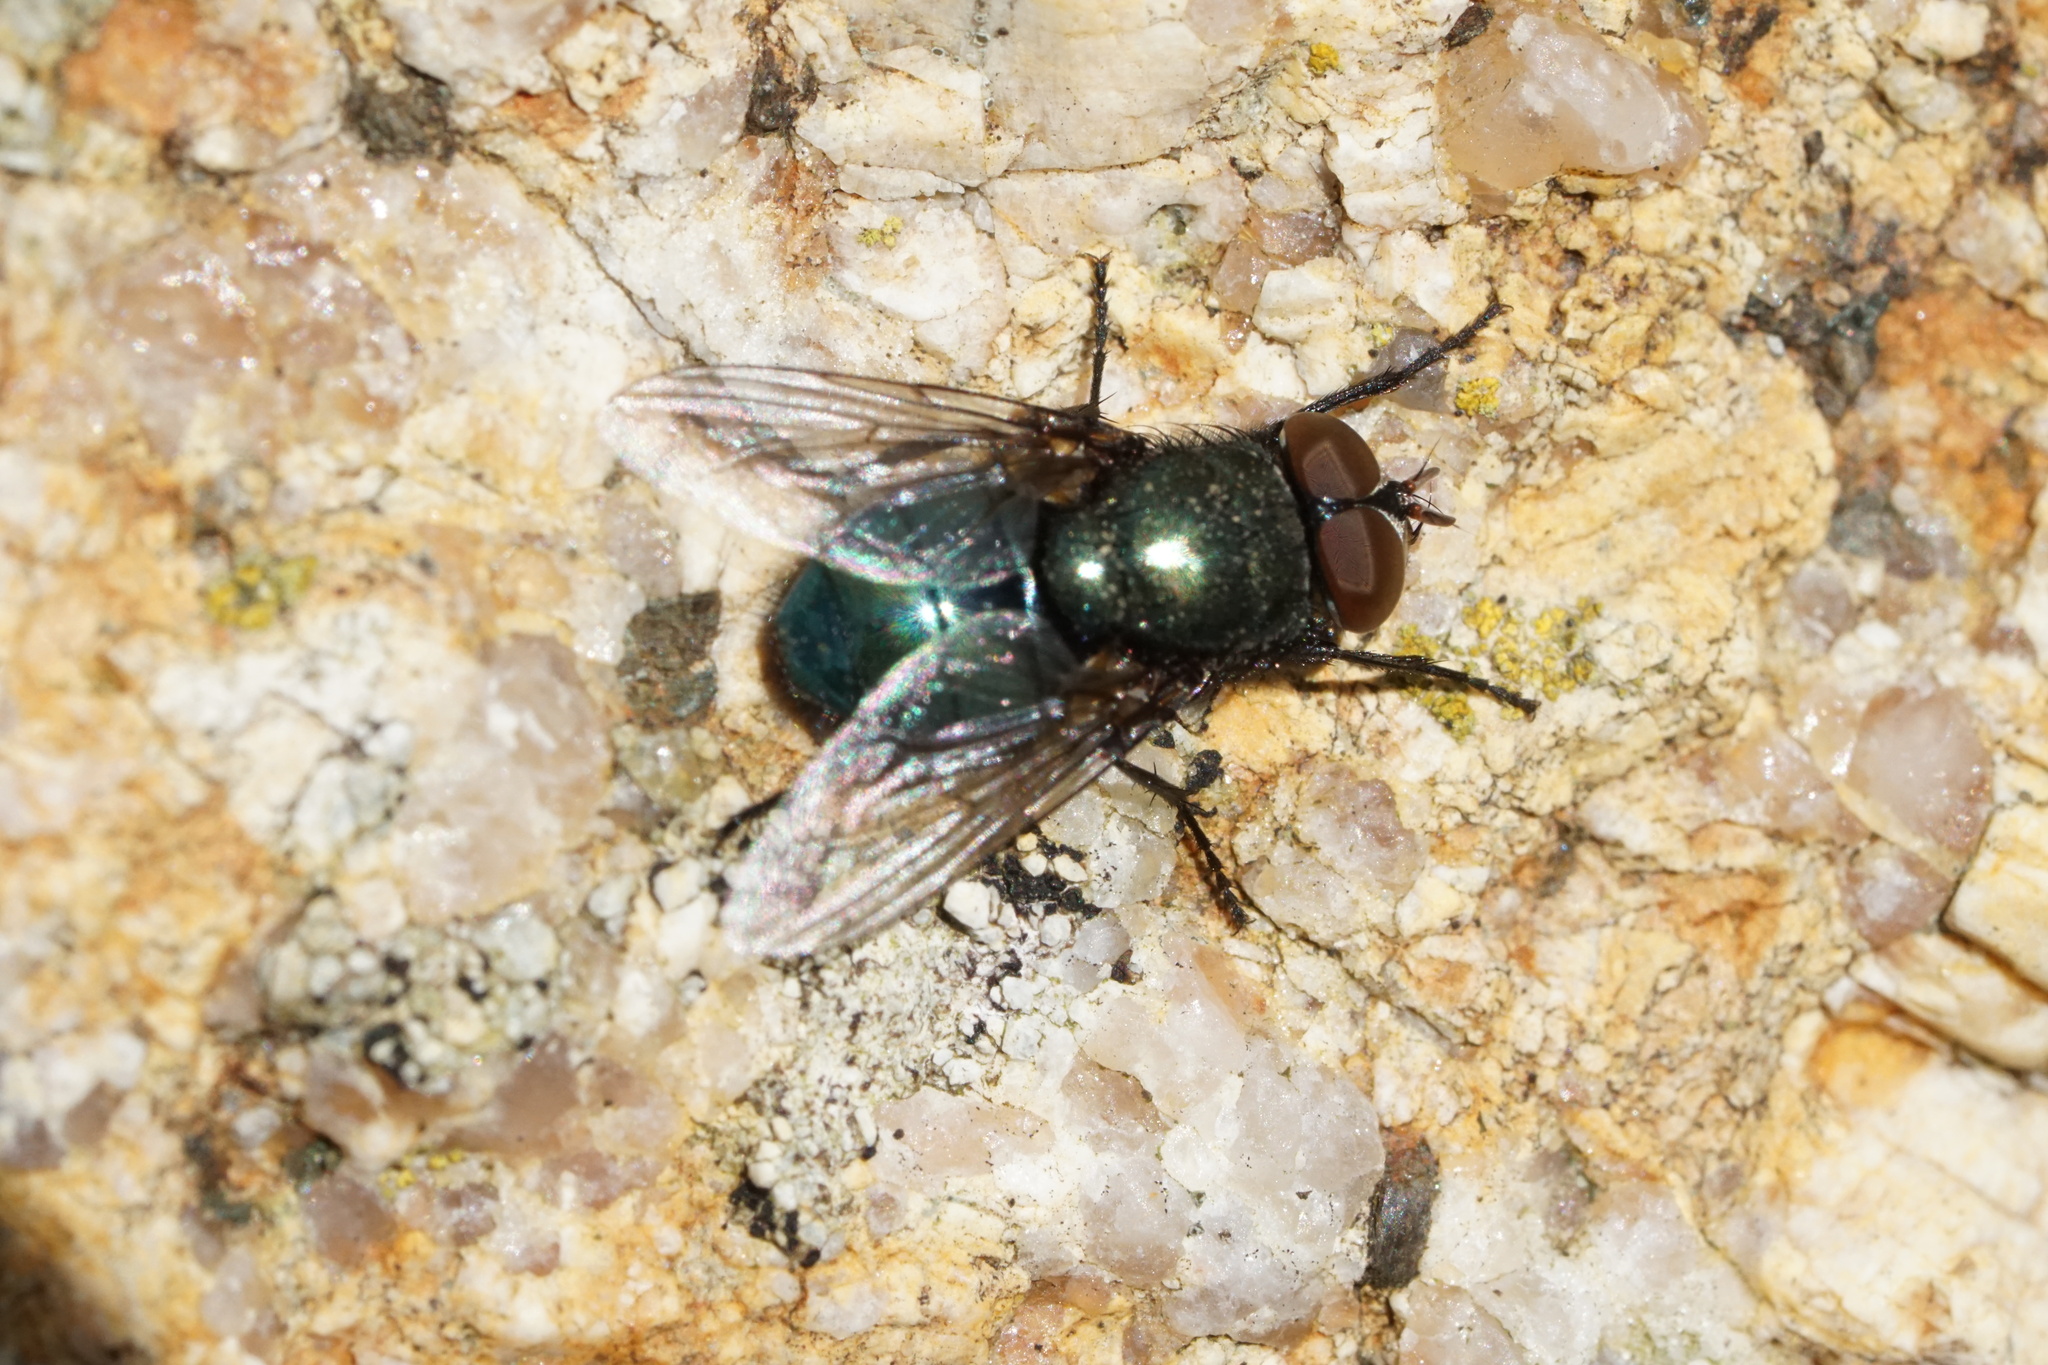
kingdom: Animalia
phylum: Arthropoda
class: Insecta
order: Diptera
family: Calliphoridae
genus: Phormia
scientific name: Phormia regina
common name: Black blow fly
